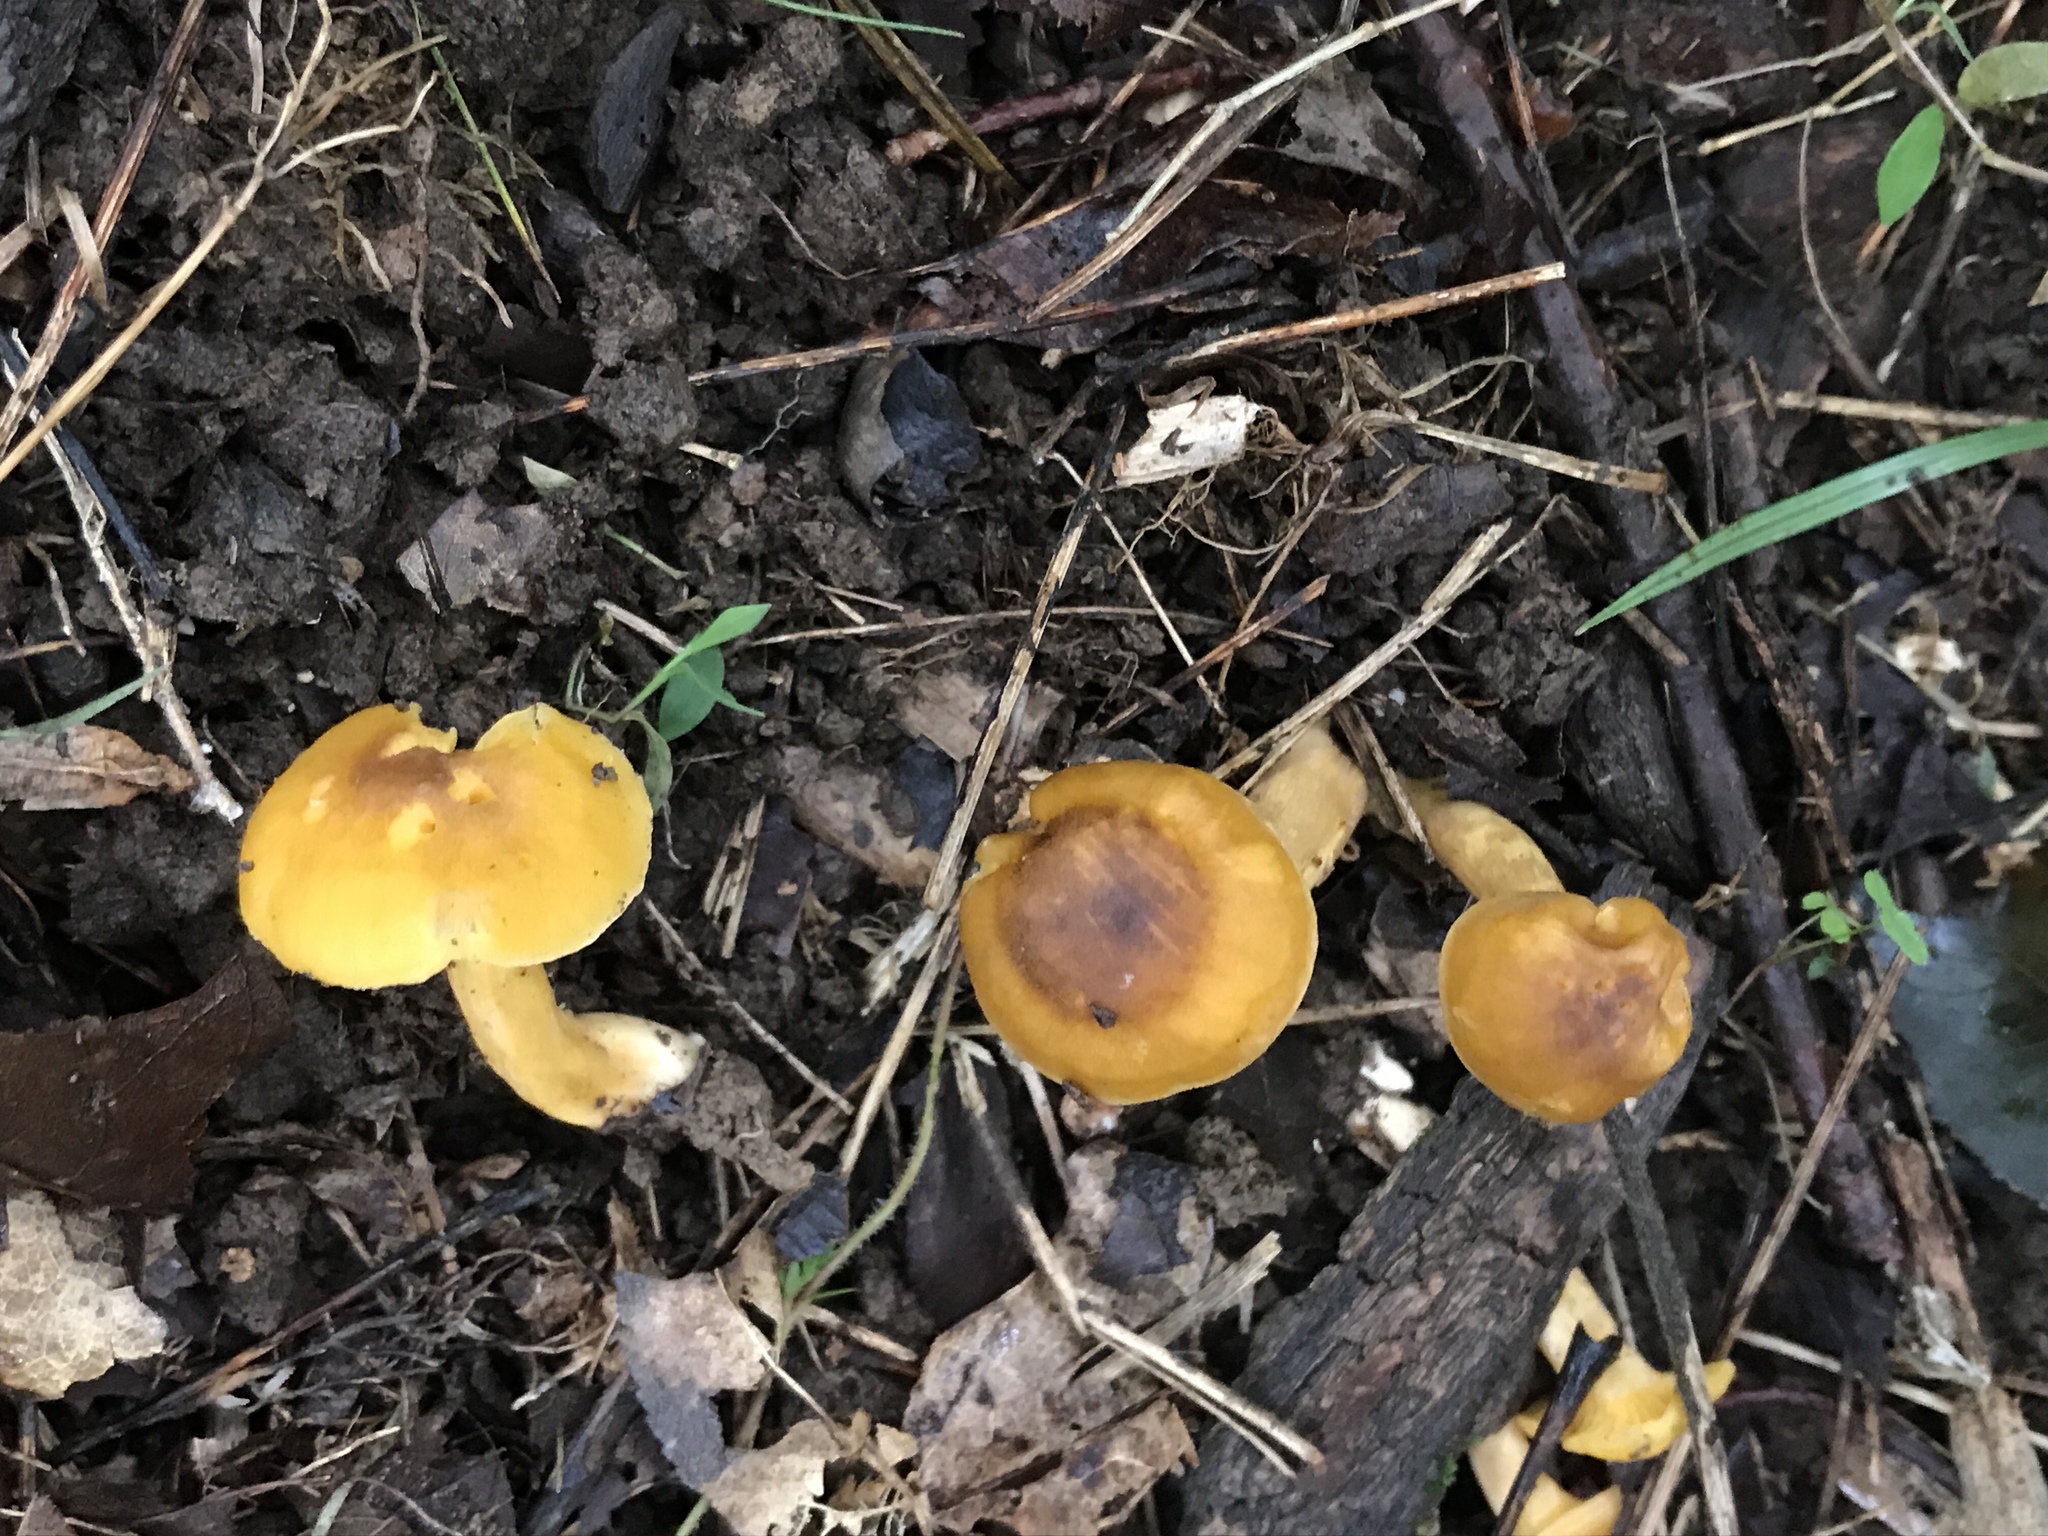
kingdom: Fungi
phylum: Basidiomycota
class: Agaricomycetes
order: Cantharellales
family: Hydnaceae
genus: Cantharellus
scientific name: Cantharellus appalachiensis
